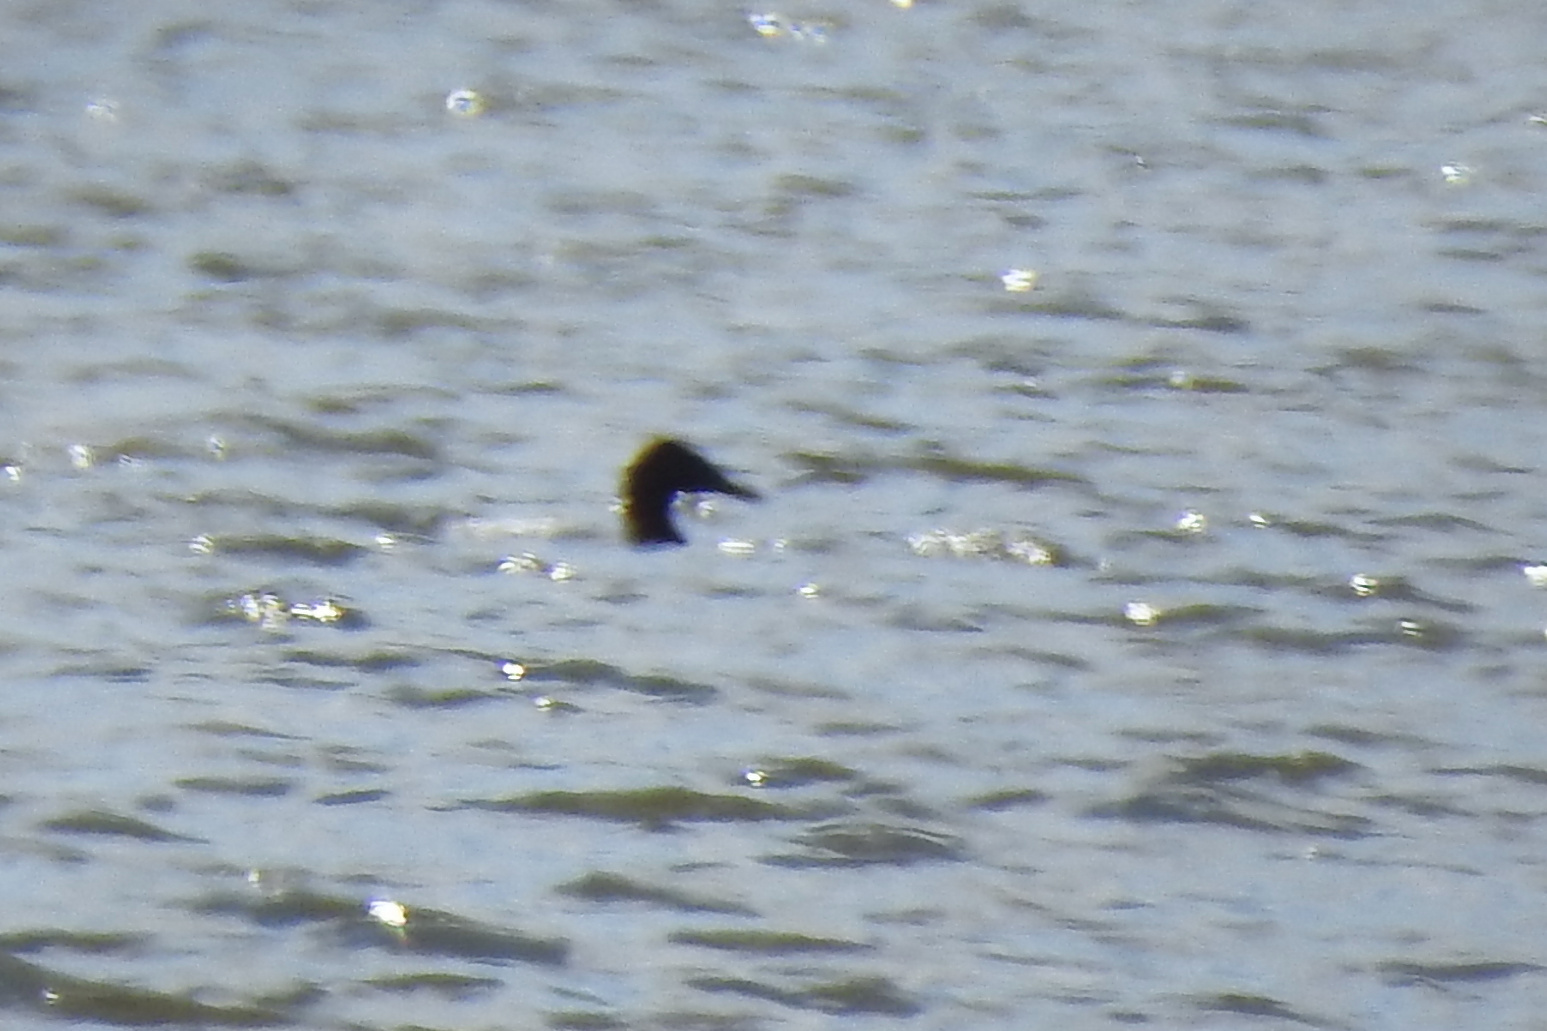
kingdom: Animalia
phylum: Chordata
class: Aves
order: Anseriformes
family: Anatidae
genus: Aythya
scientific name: Aythya valisineria
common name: Canvasback
